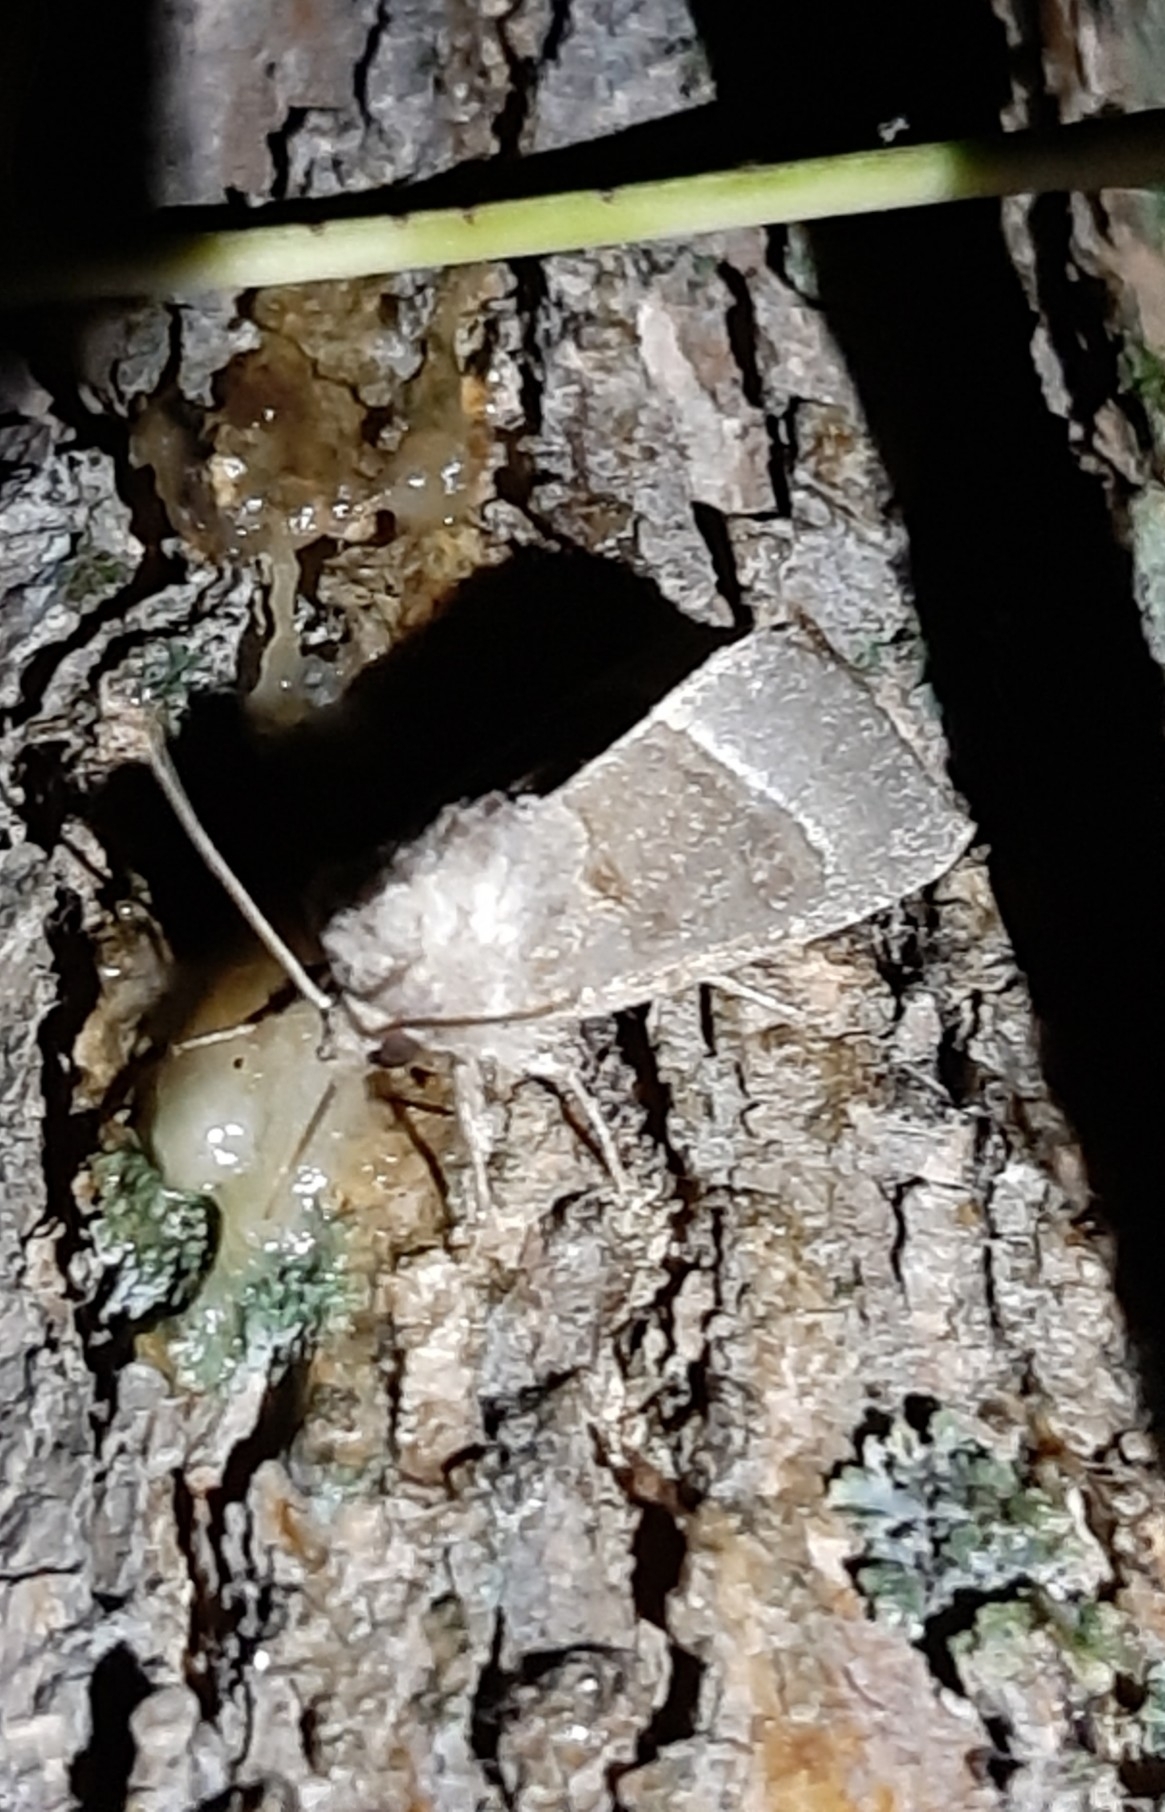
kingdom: Animalia
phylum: Arthropoda
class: Insecta
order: Lepidoptera
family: Noctuidae
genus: Papaipema
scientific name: Papaipema nebris
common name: Stalk borer
